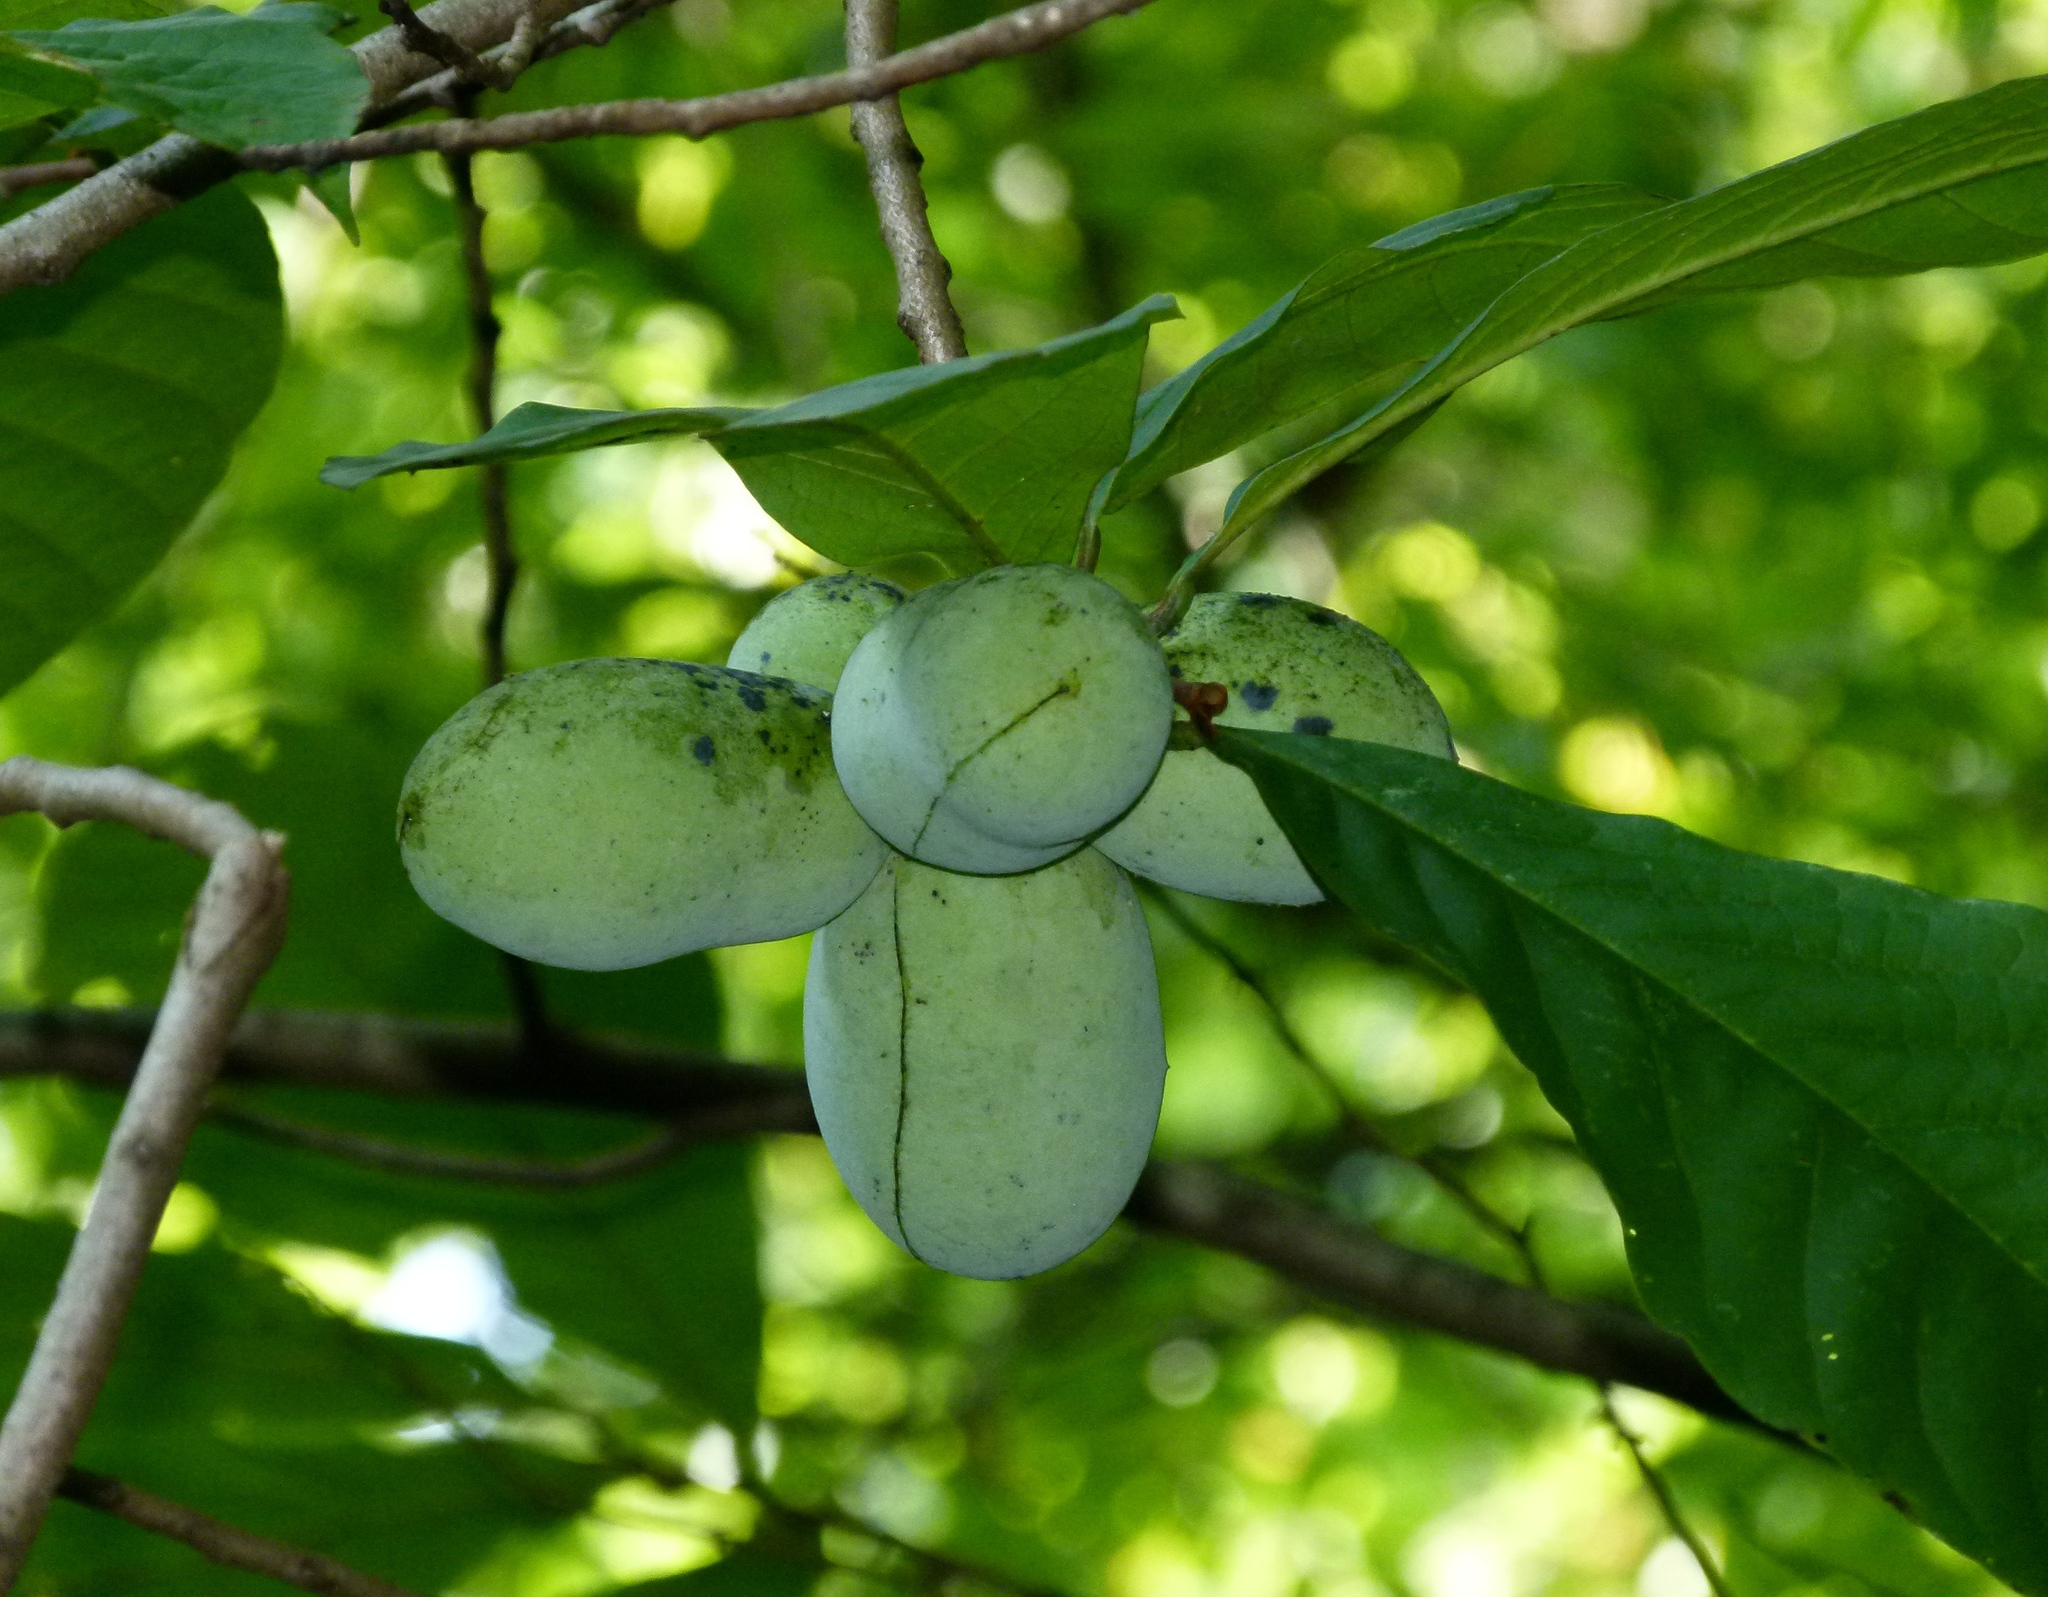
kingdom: Plantae
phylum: Tracheophyta
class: Magnoliopsida
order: Magnoliales
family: Annonaceae
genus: Asimina
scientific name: Asimina triloba
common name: Dog-banana
